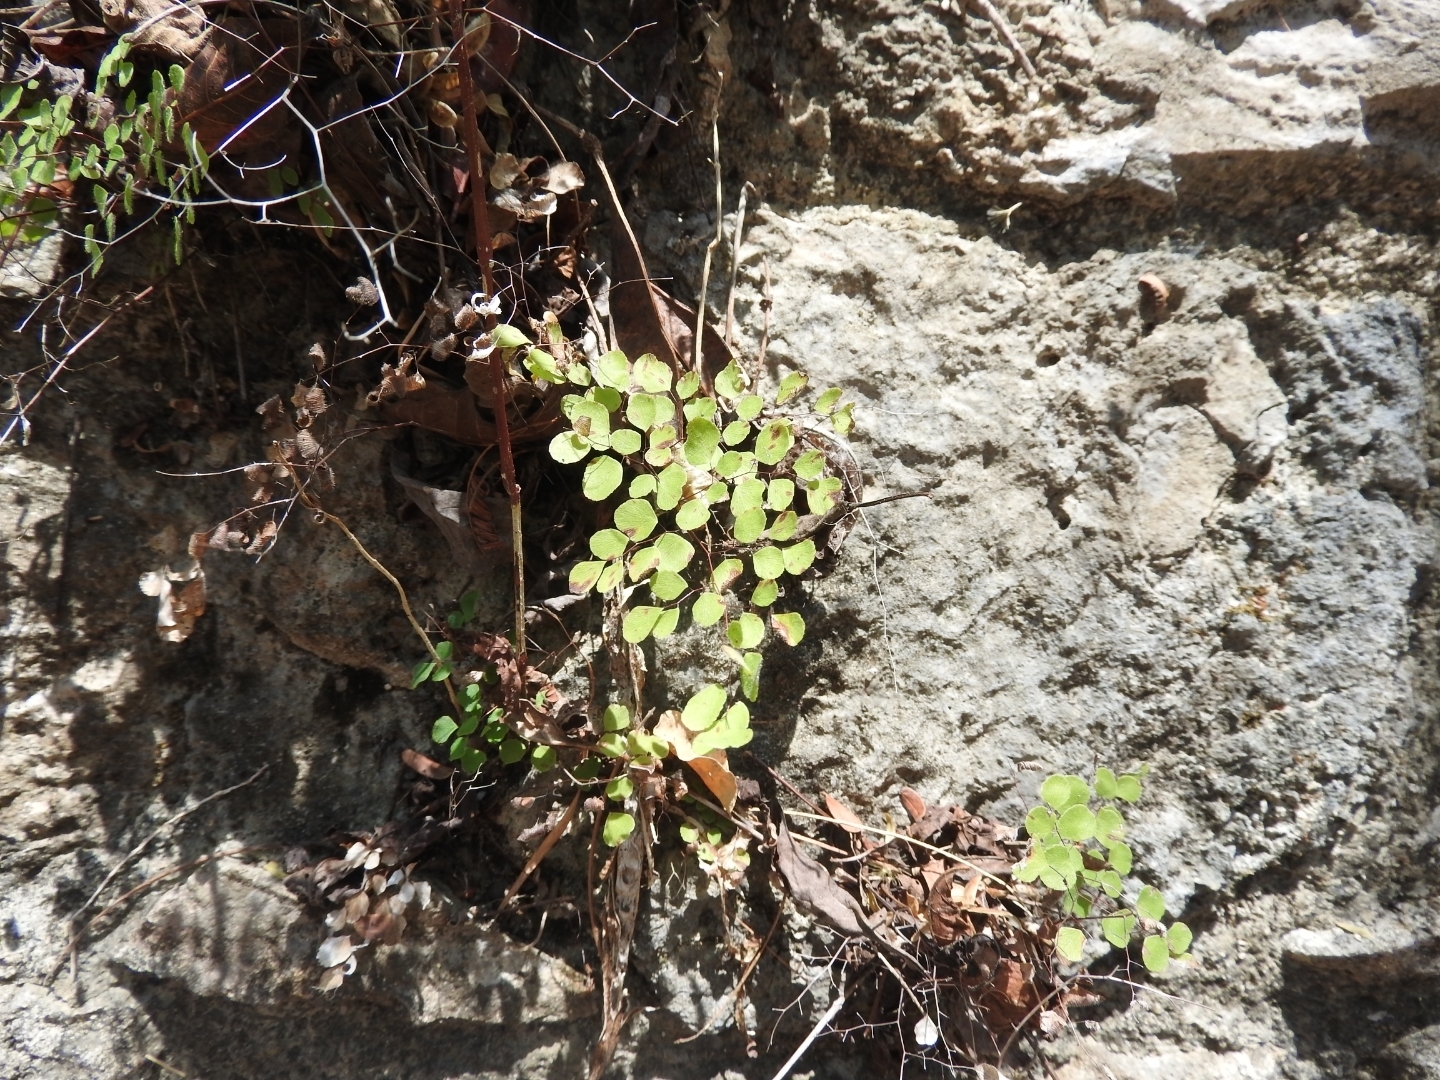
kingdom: Plantae
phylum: Tracheophyta
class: Polypodiopsida
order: Polypodiales
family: Pteridaceae
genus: Adiantum
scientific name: Adiantum tricholepis
